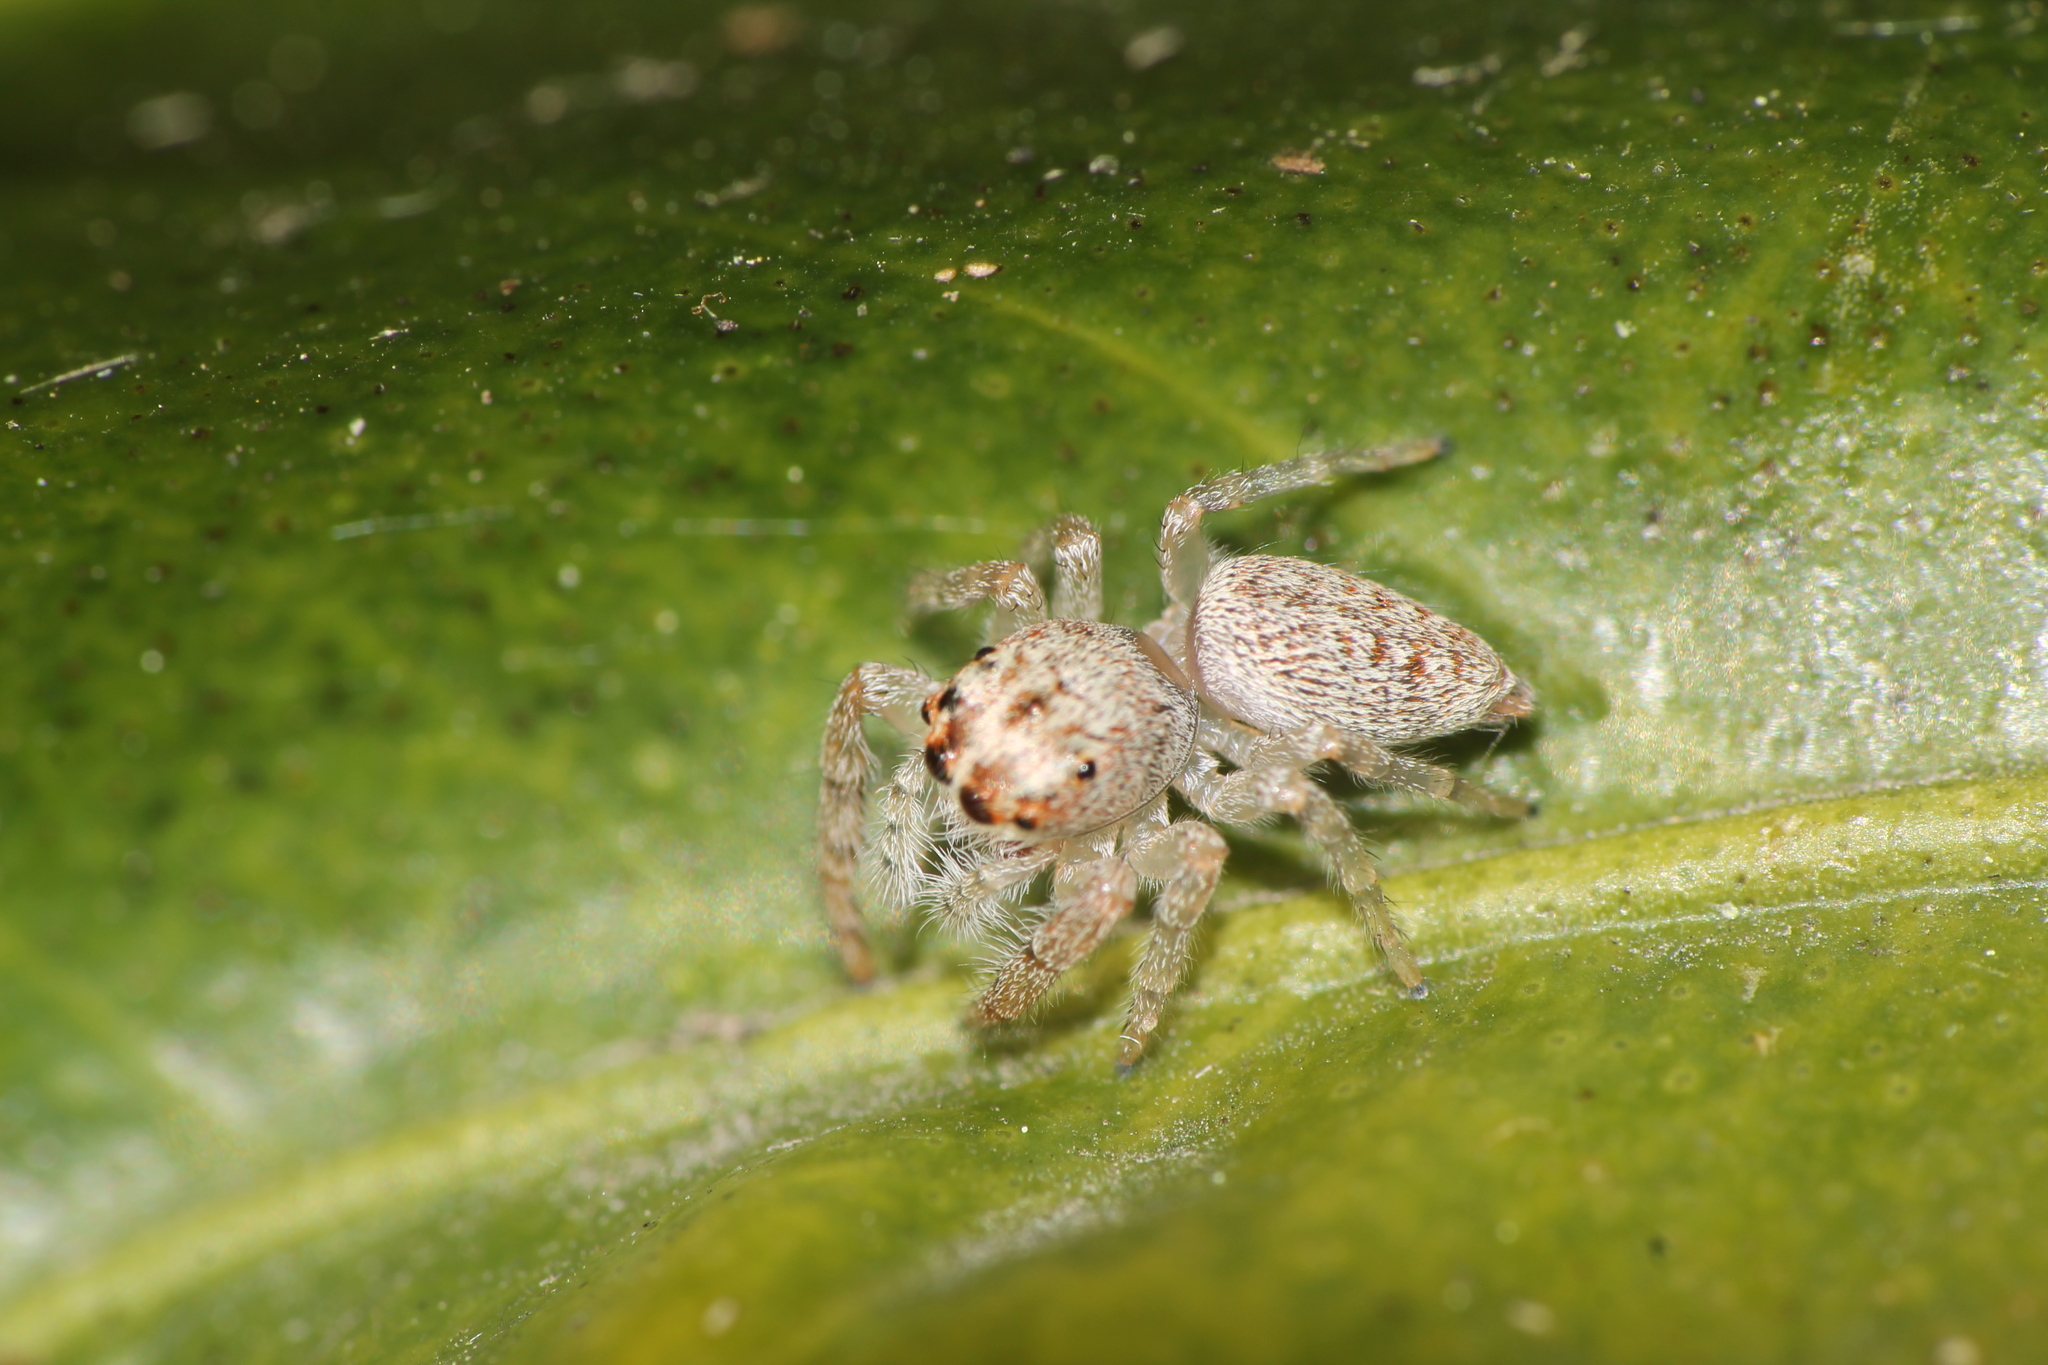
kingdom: Animalia
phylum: Arthropoda
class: Arachnida
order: Araneae
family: Salticidae
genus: Opisthoncus
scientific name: Opisthoncus polyphemus
